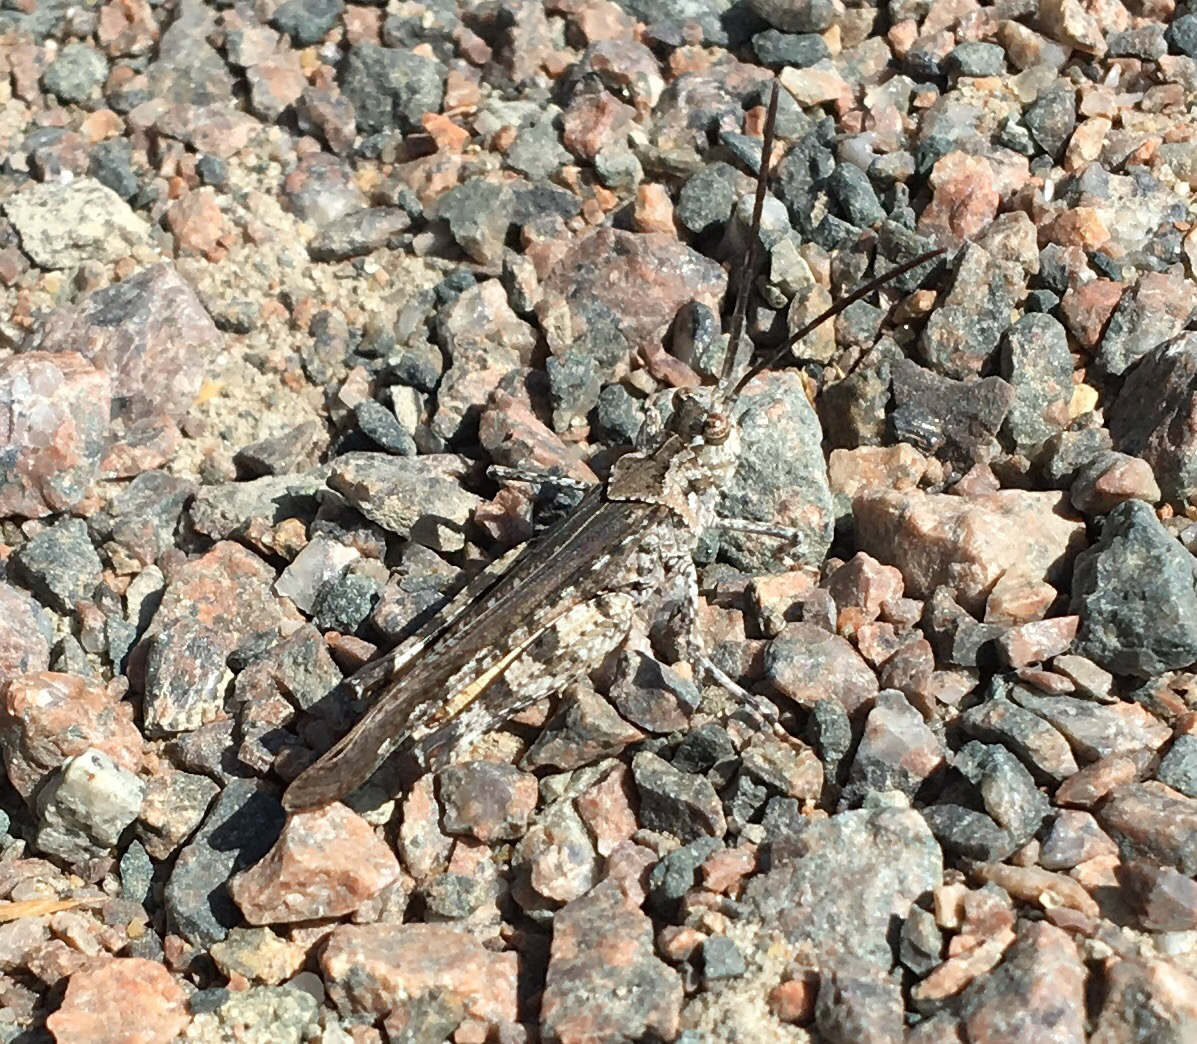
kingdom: Animalia
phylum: Arthropoda
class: Insecta
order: Orthoptera
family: Acrididae
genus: Psinidia
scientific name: Psinidia fenestralis
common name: Long-horned locust
